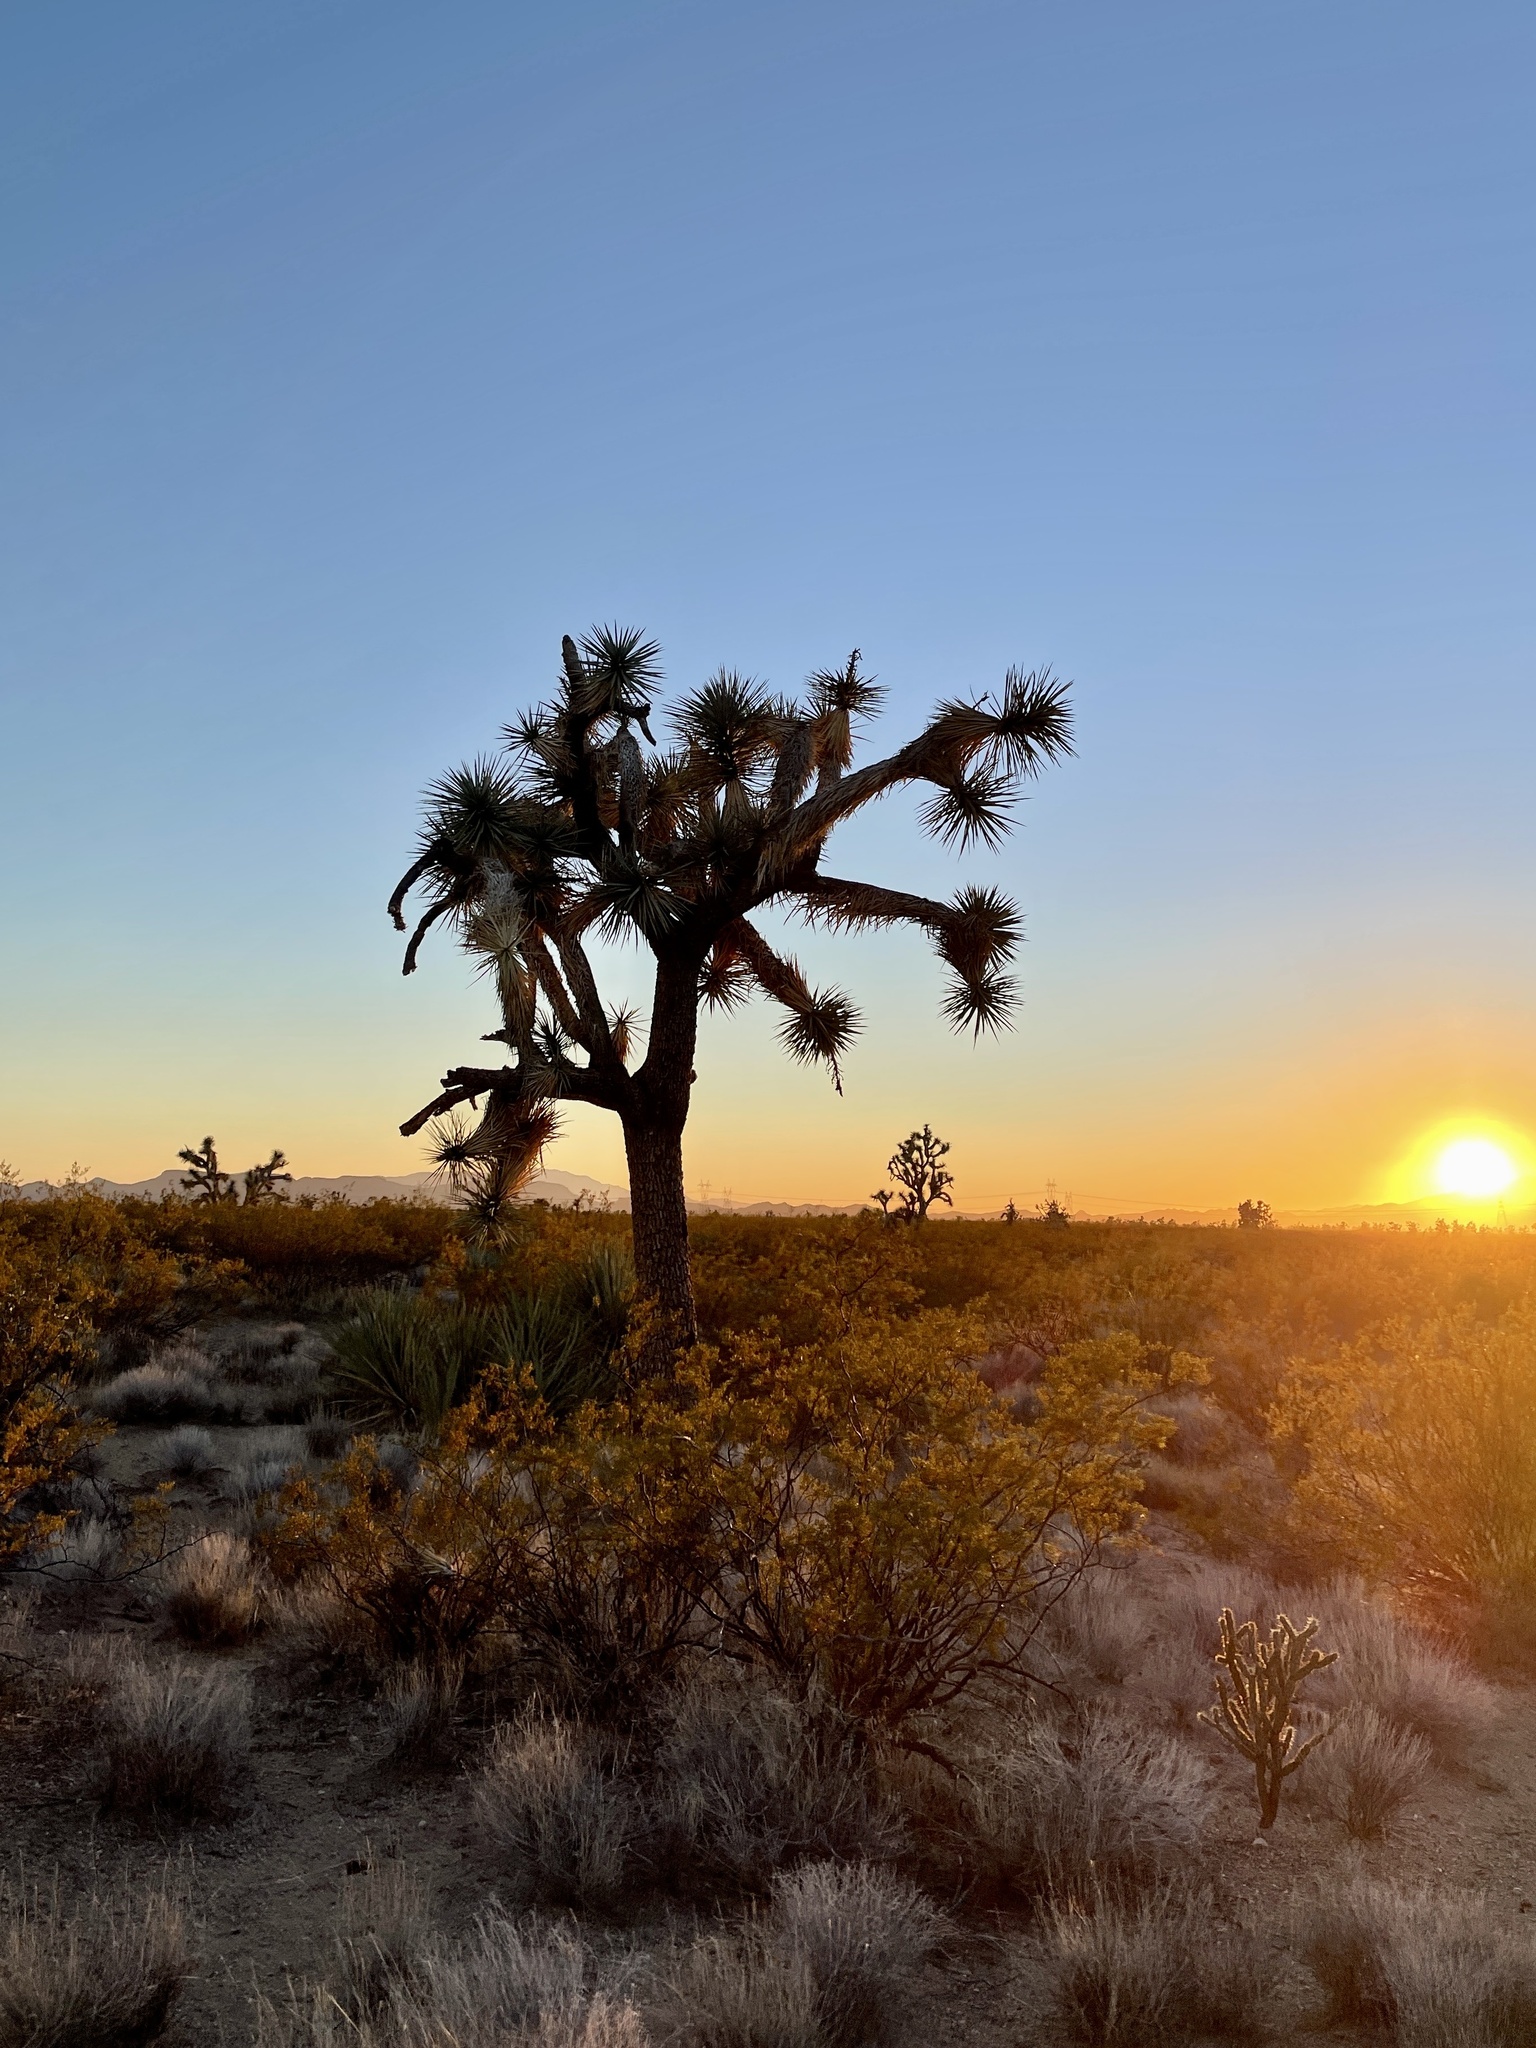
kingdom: Plantae
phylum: Tracheophyta
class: Liliopsida
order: Asparagales
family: Asparagaceae
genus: Yucca
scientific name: Yucca brevifolia
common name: Joshua tree
